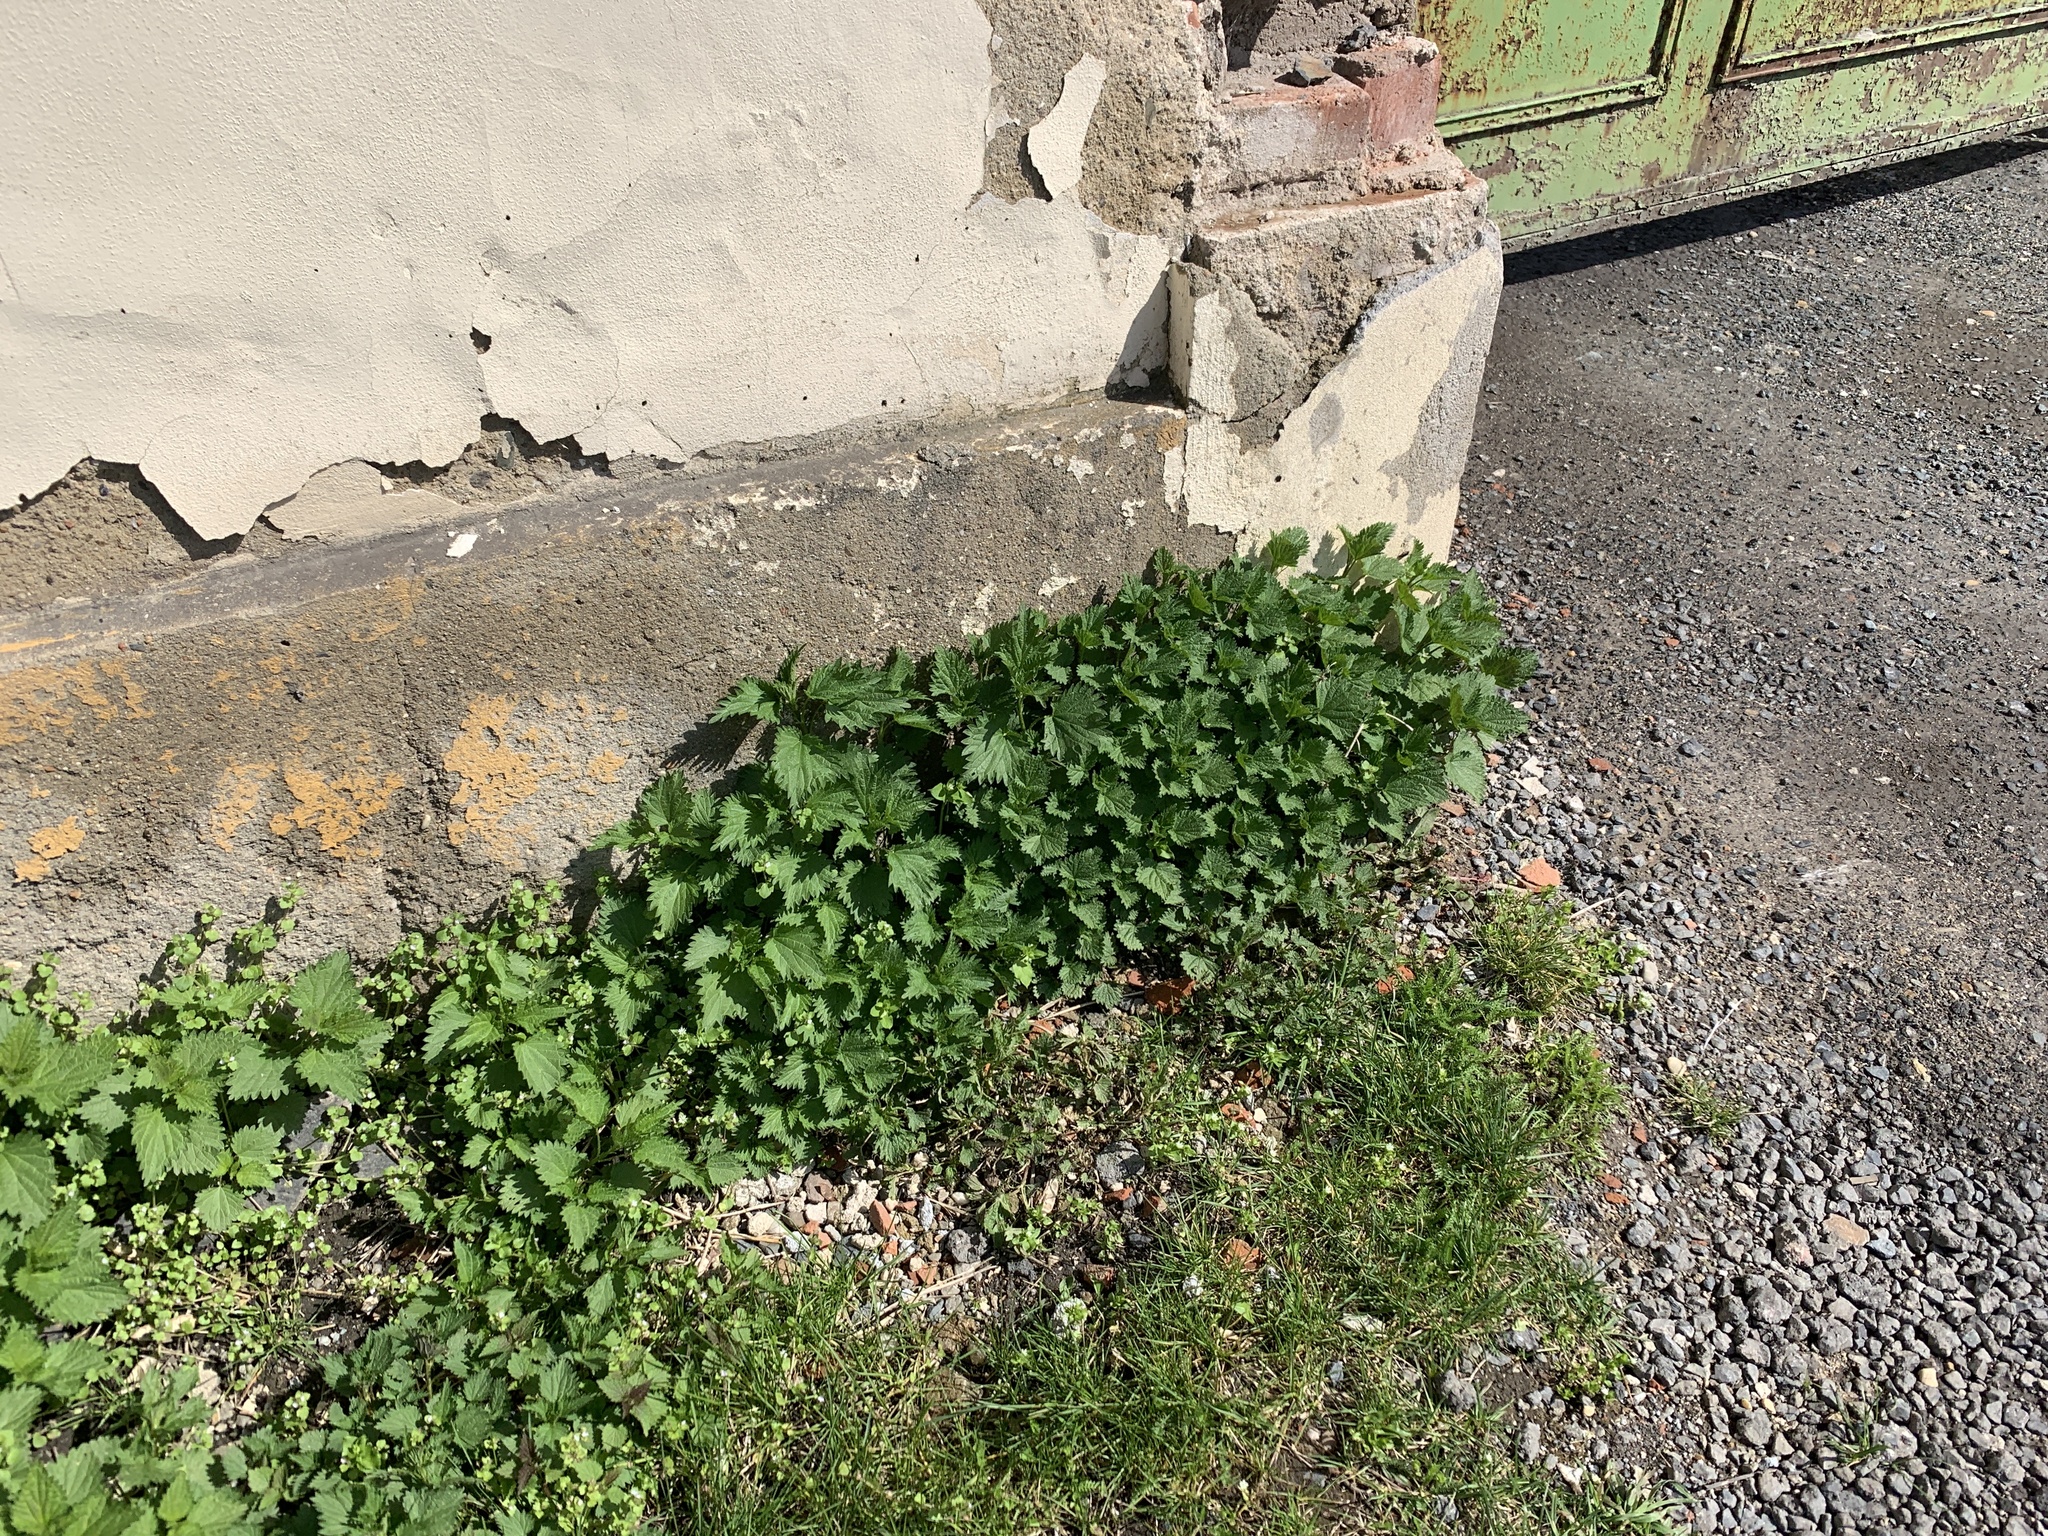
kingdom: Plantae
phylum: Tracheophyta
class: Magnoliopsida
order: Rosales
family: Urticaceae
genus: Urtica
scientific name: Urtica dioica
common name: Common nettle
